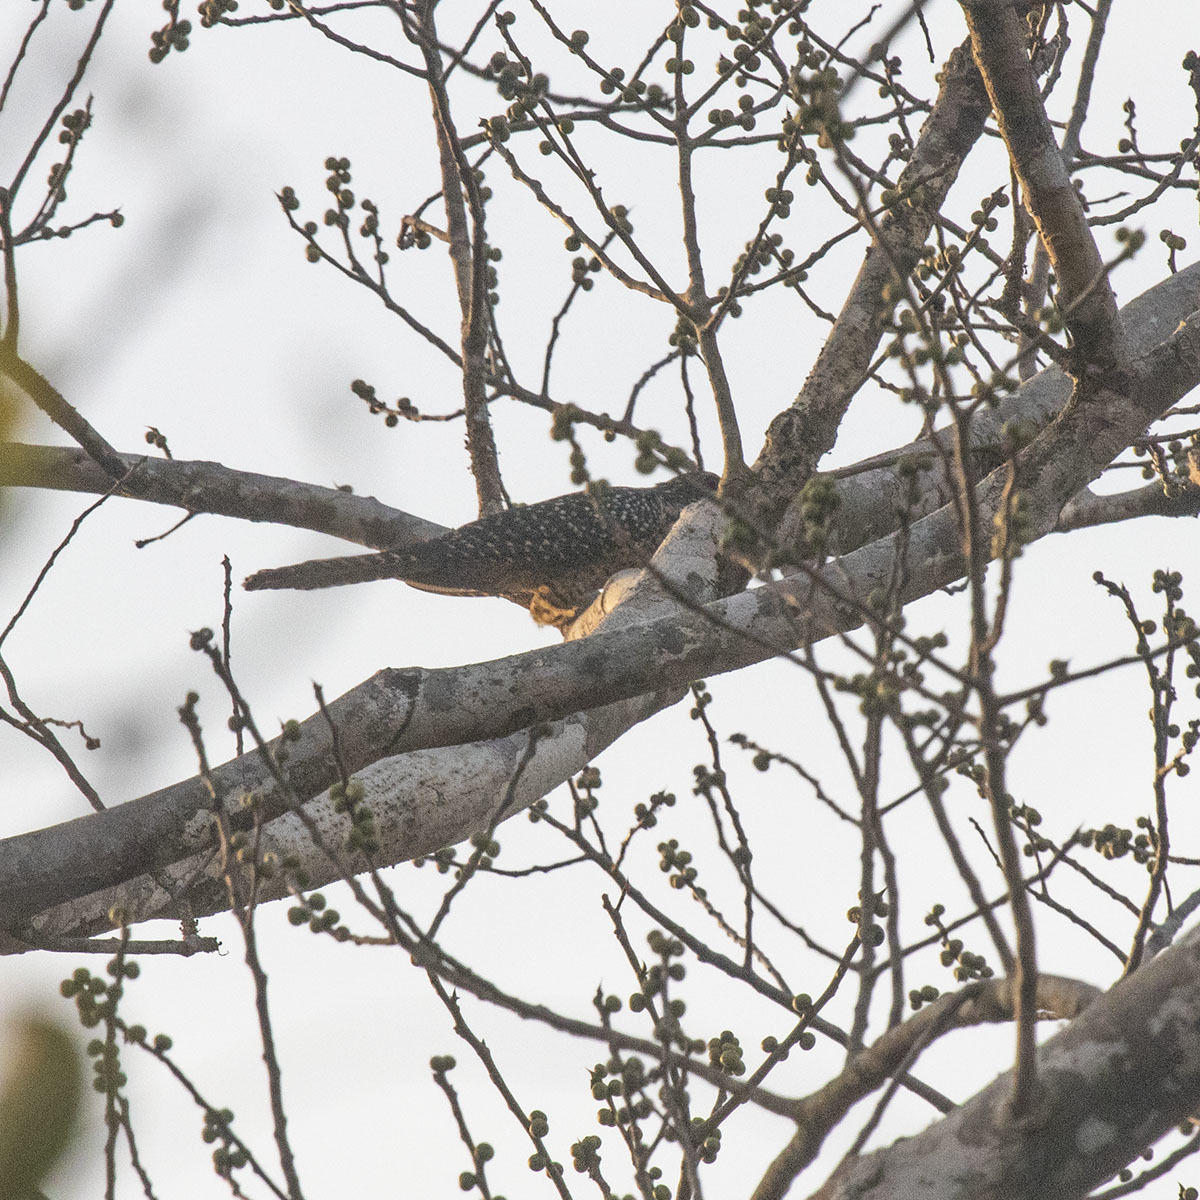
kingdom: Animalia
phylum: Chordata
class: Aves
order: Cuculiformes
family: Cuculidae
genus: Eudynamys
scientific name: Eudynamys scolopaceus
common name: Asian koel
